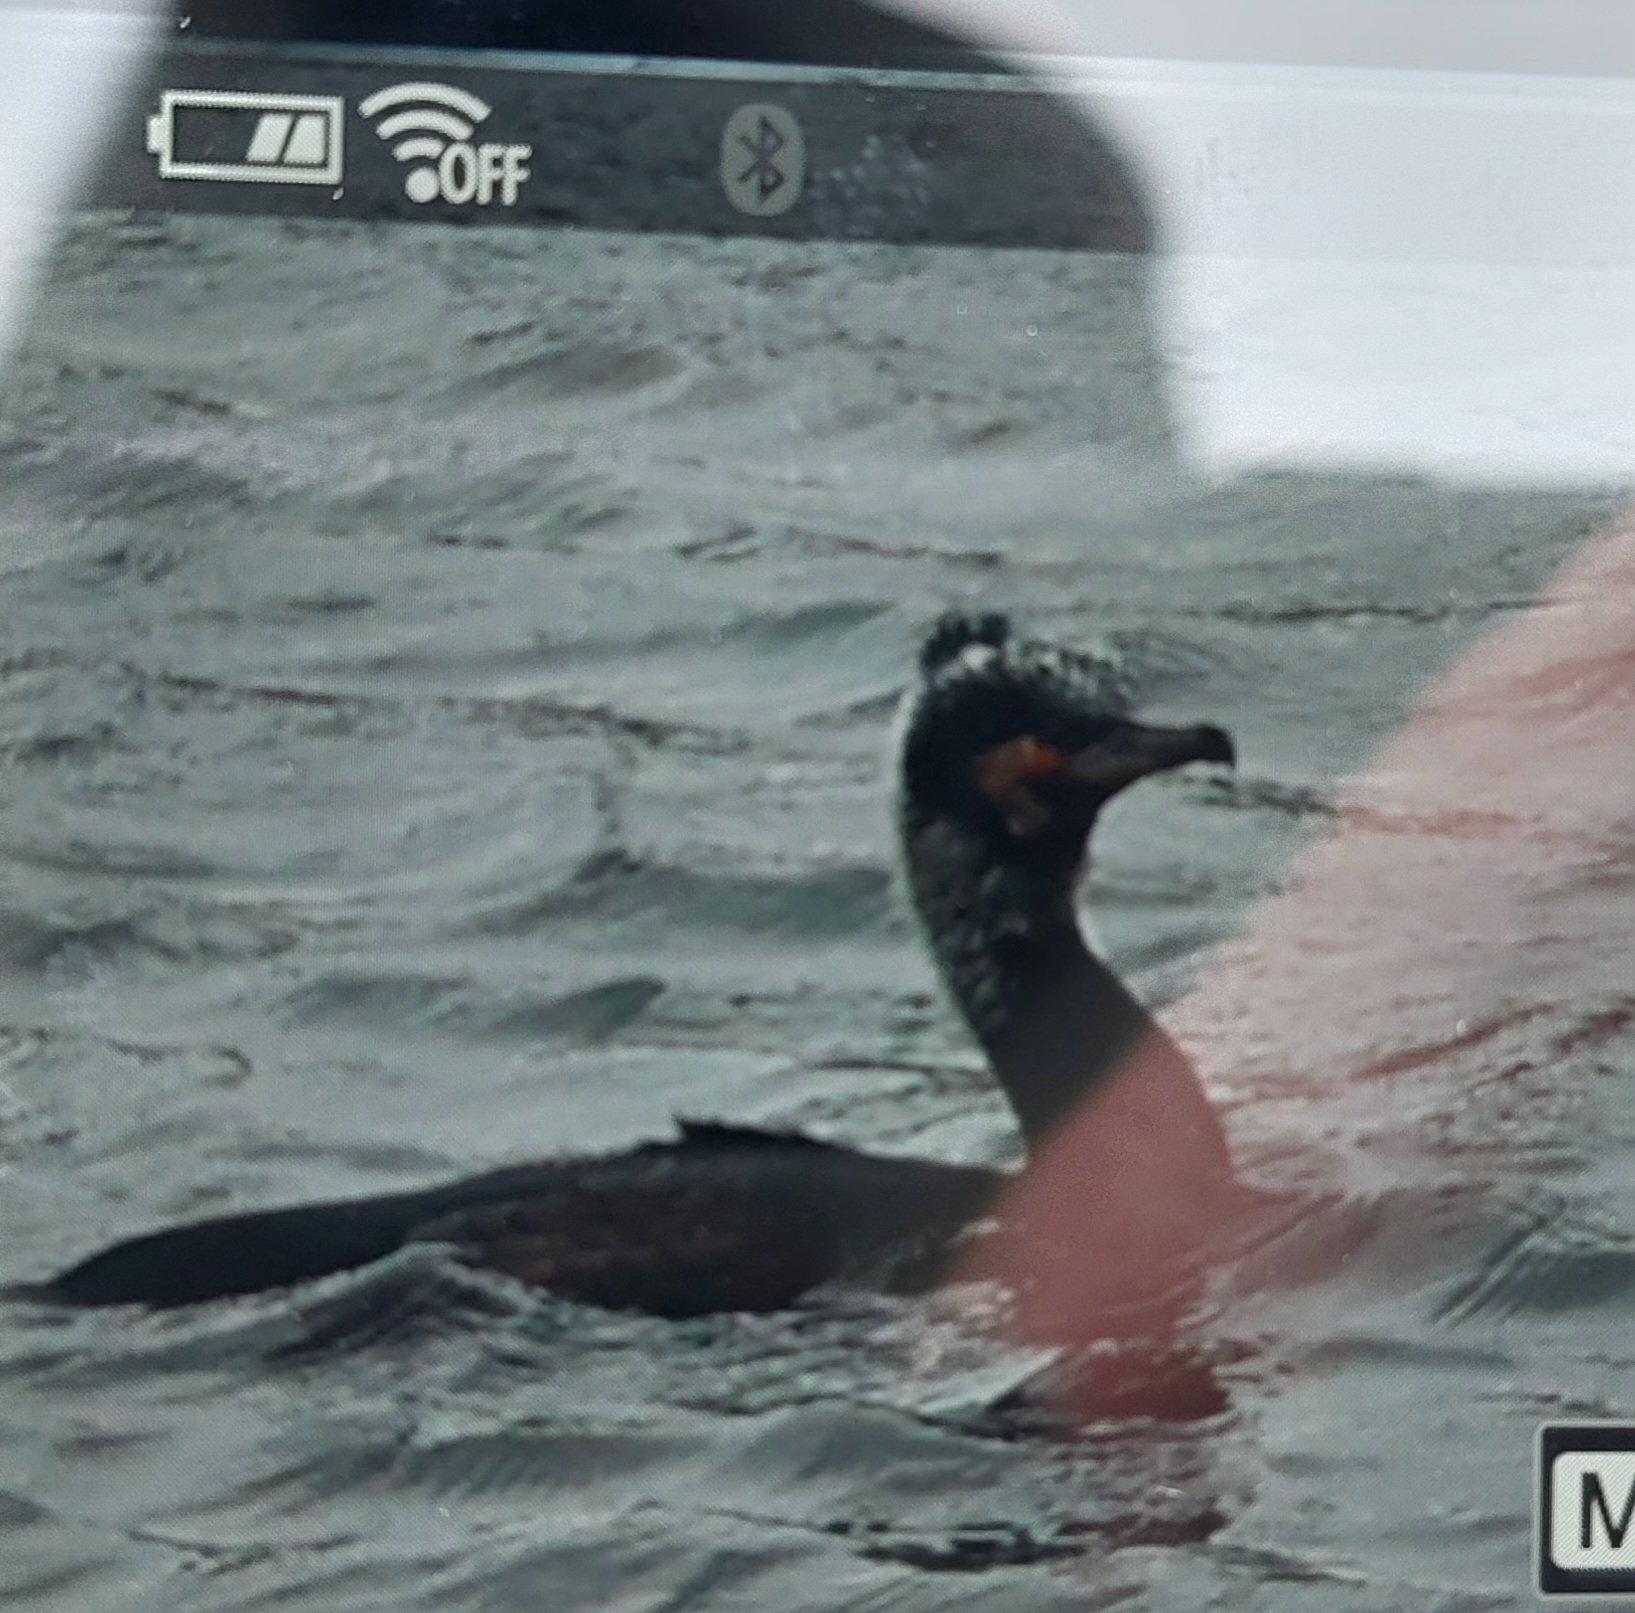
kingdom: Animalia
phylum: Chordata
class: Aves
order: Suliformes
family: Phalacrocoracidae
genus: Phalacrocorax
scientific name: Phalacrocorax carbo
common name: Great cormorant
